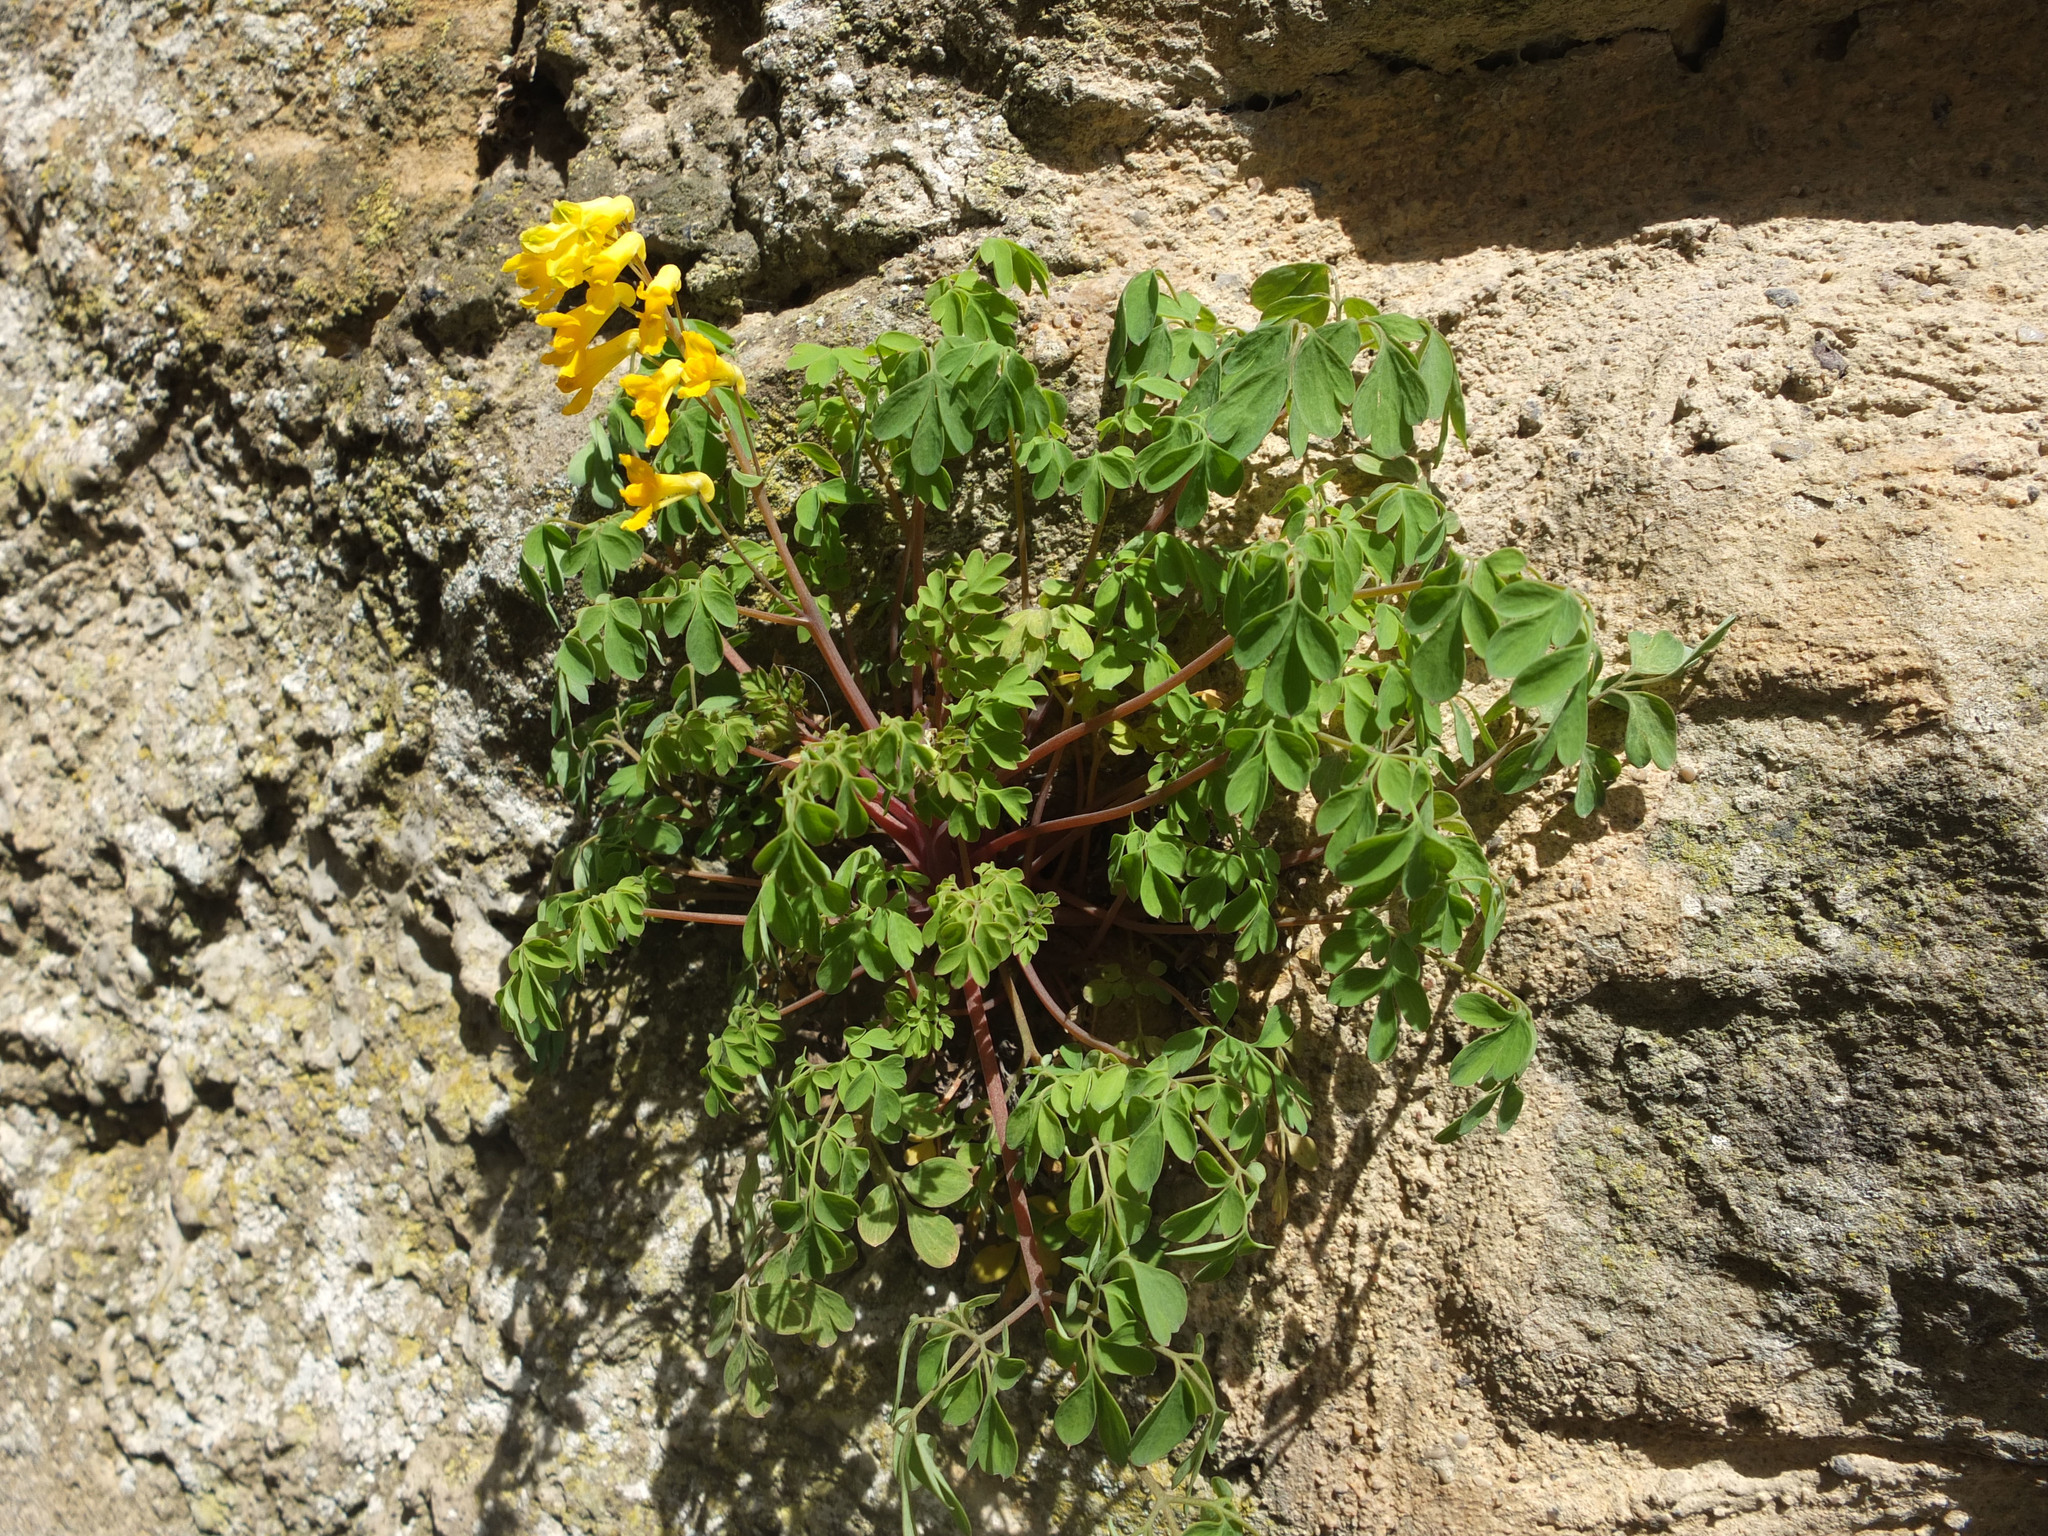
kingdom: Plantae
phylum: Tracheophyta
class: Magnoliopsida
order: Ranunculales
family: Papaveraceae
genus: Pseudofumaria
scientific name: Pseudofumaria lutea
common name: Yellow corydalis
